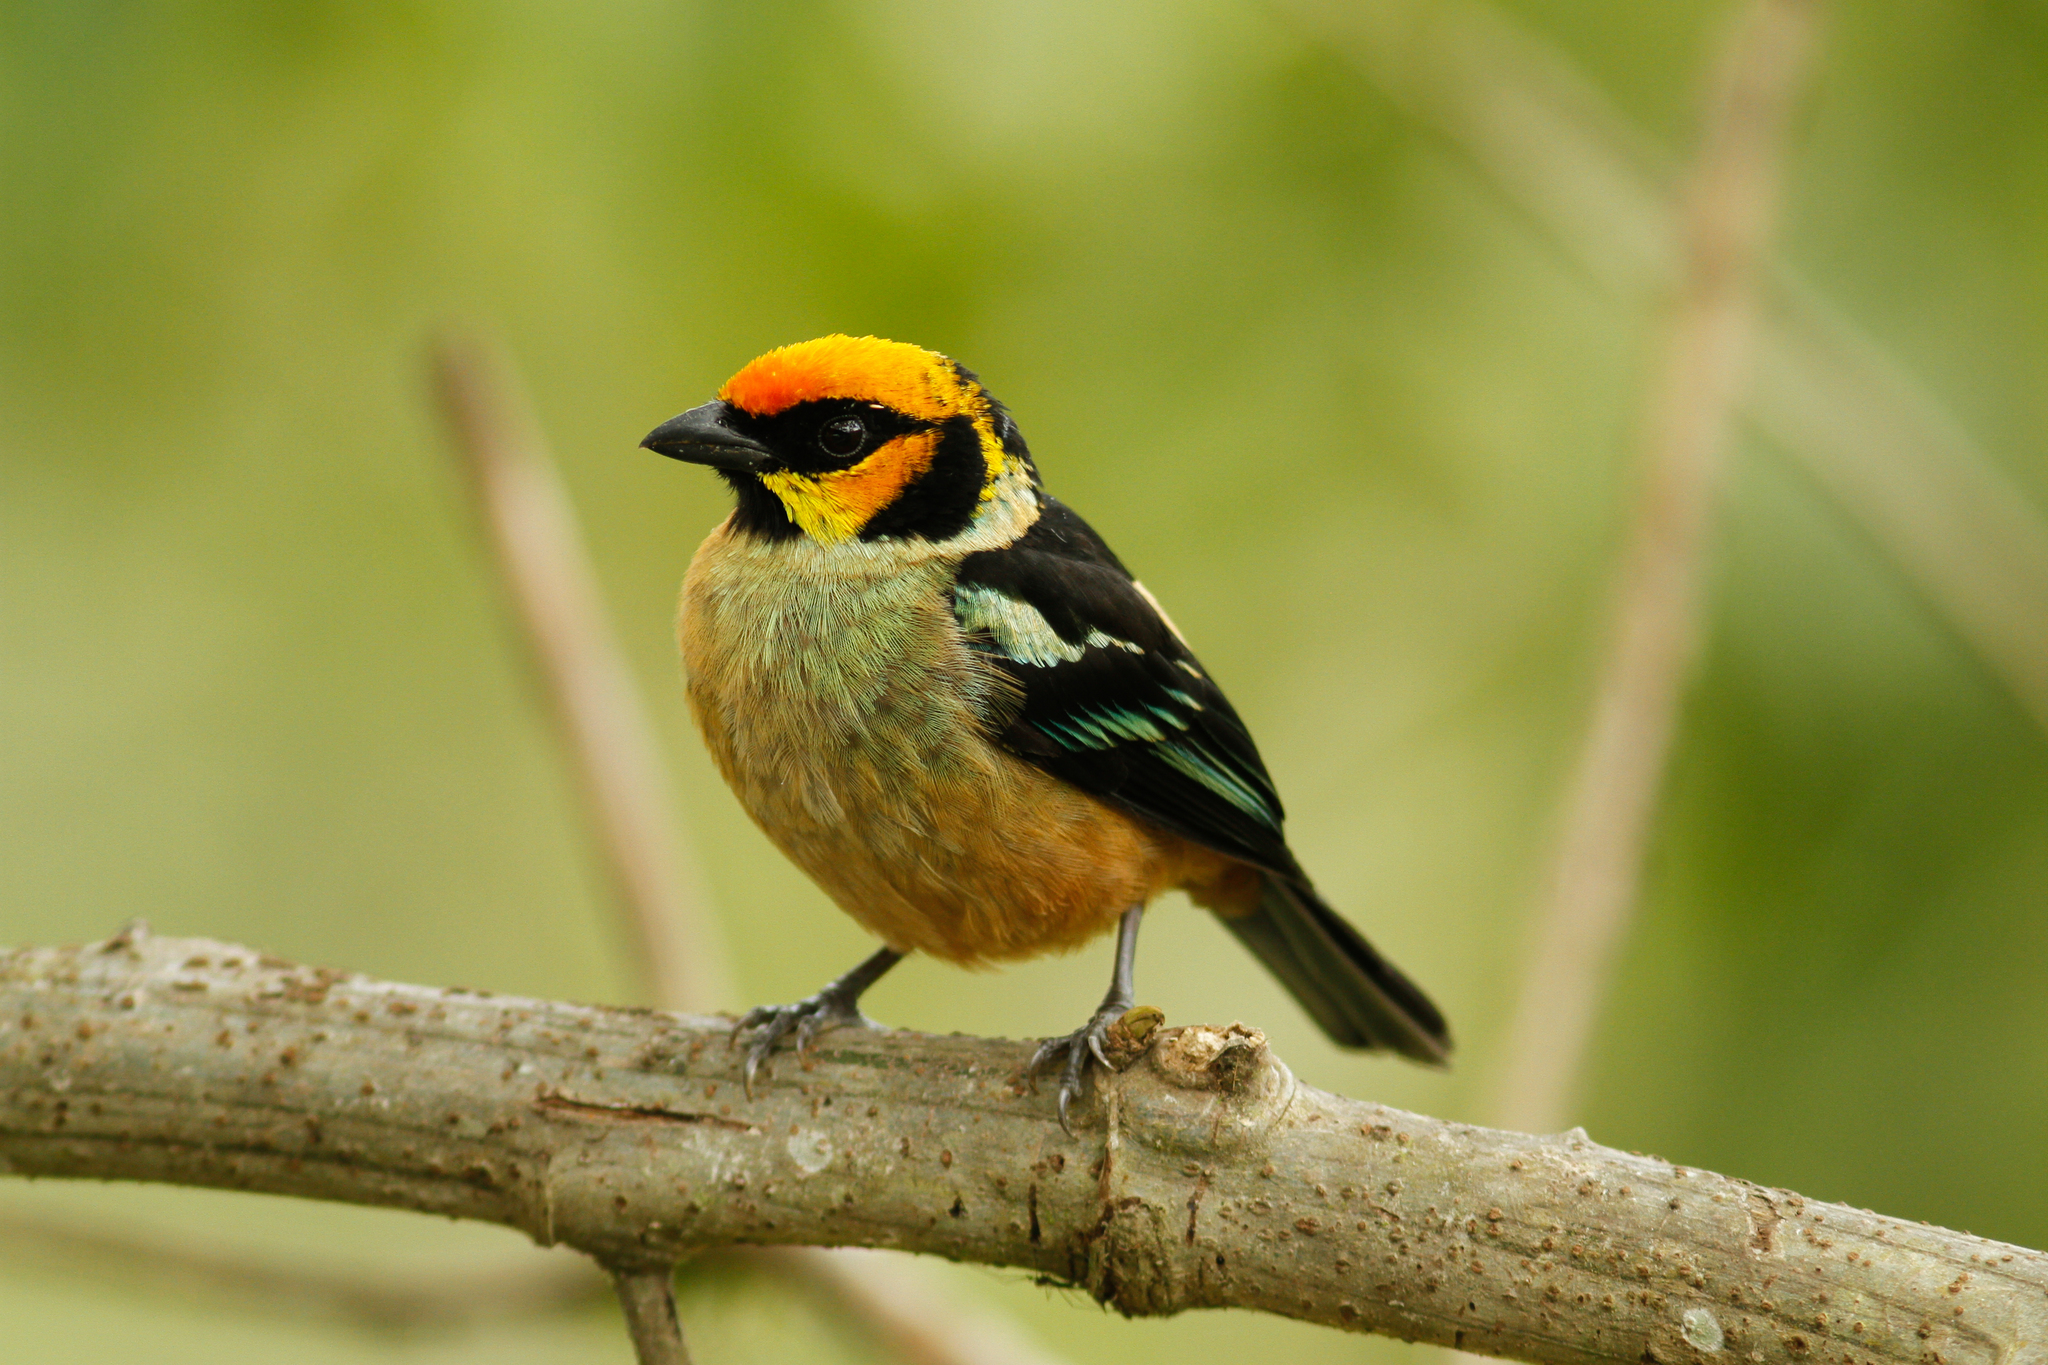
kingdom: Animalia
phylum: Chordata
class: Aves
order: Passeriformes
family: Thraupidae
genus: Tangara
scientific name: Tangara parzudakii
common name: Flame-faced tanager
